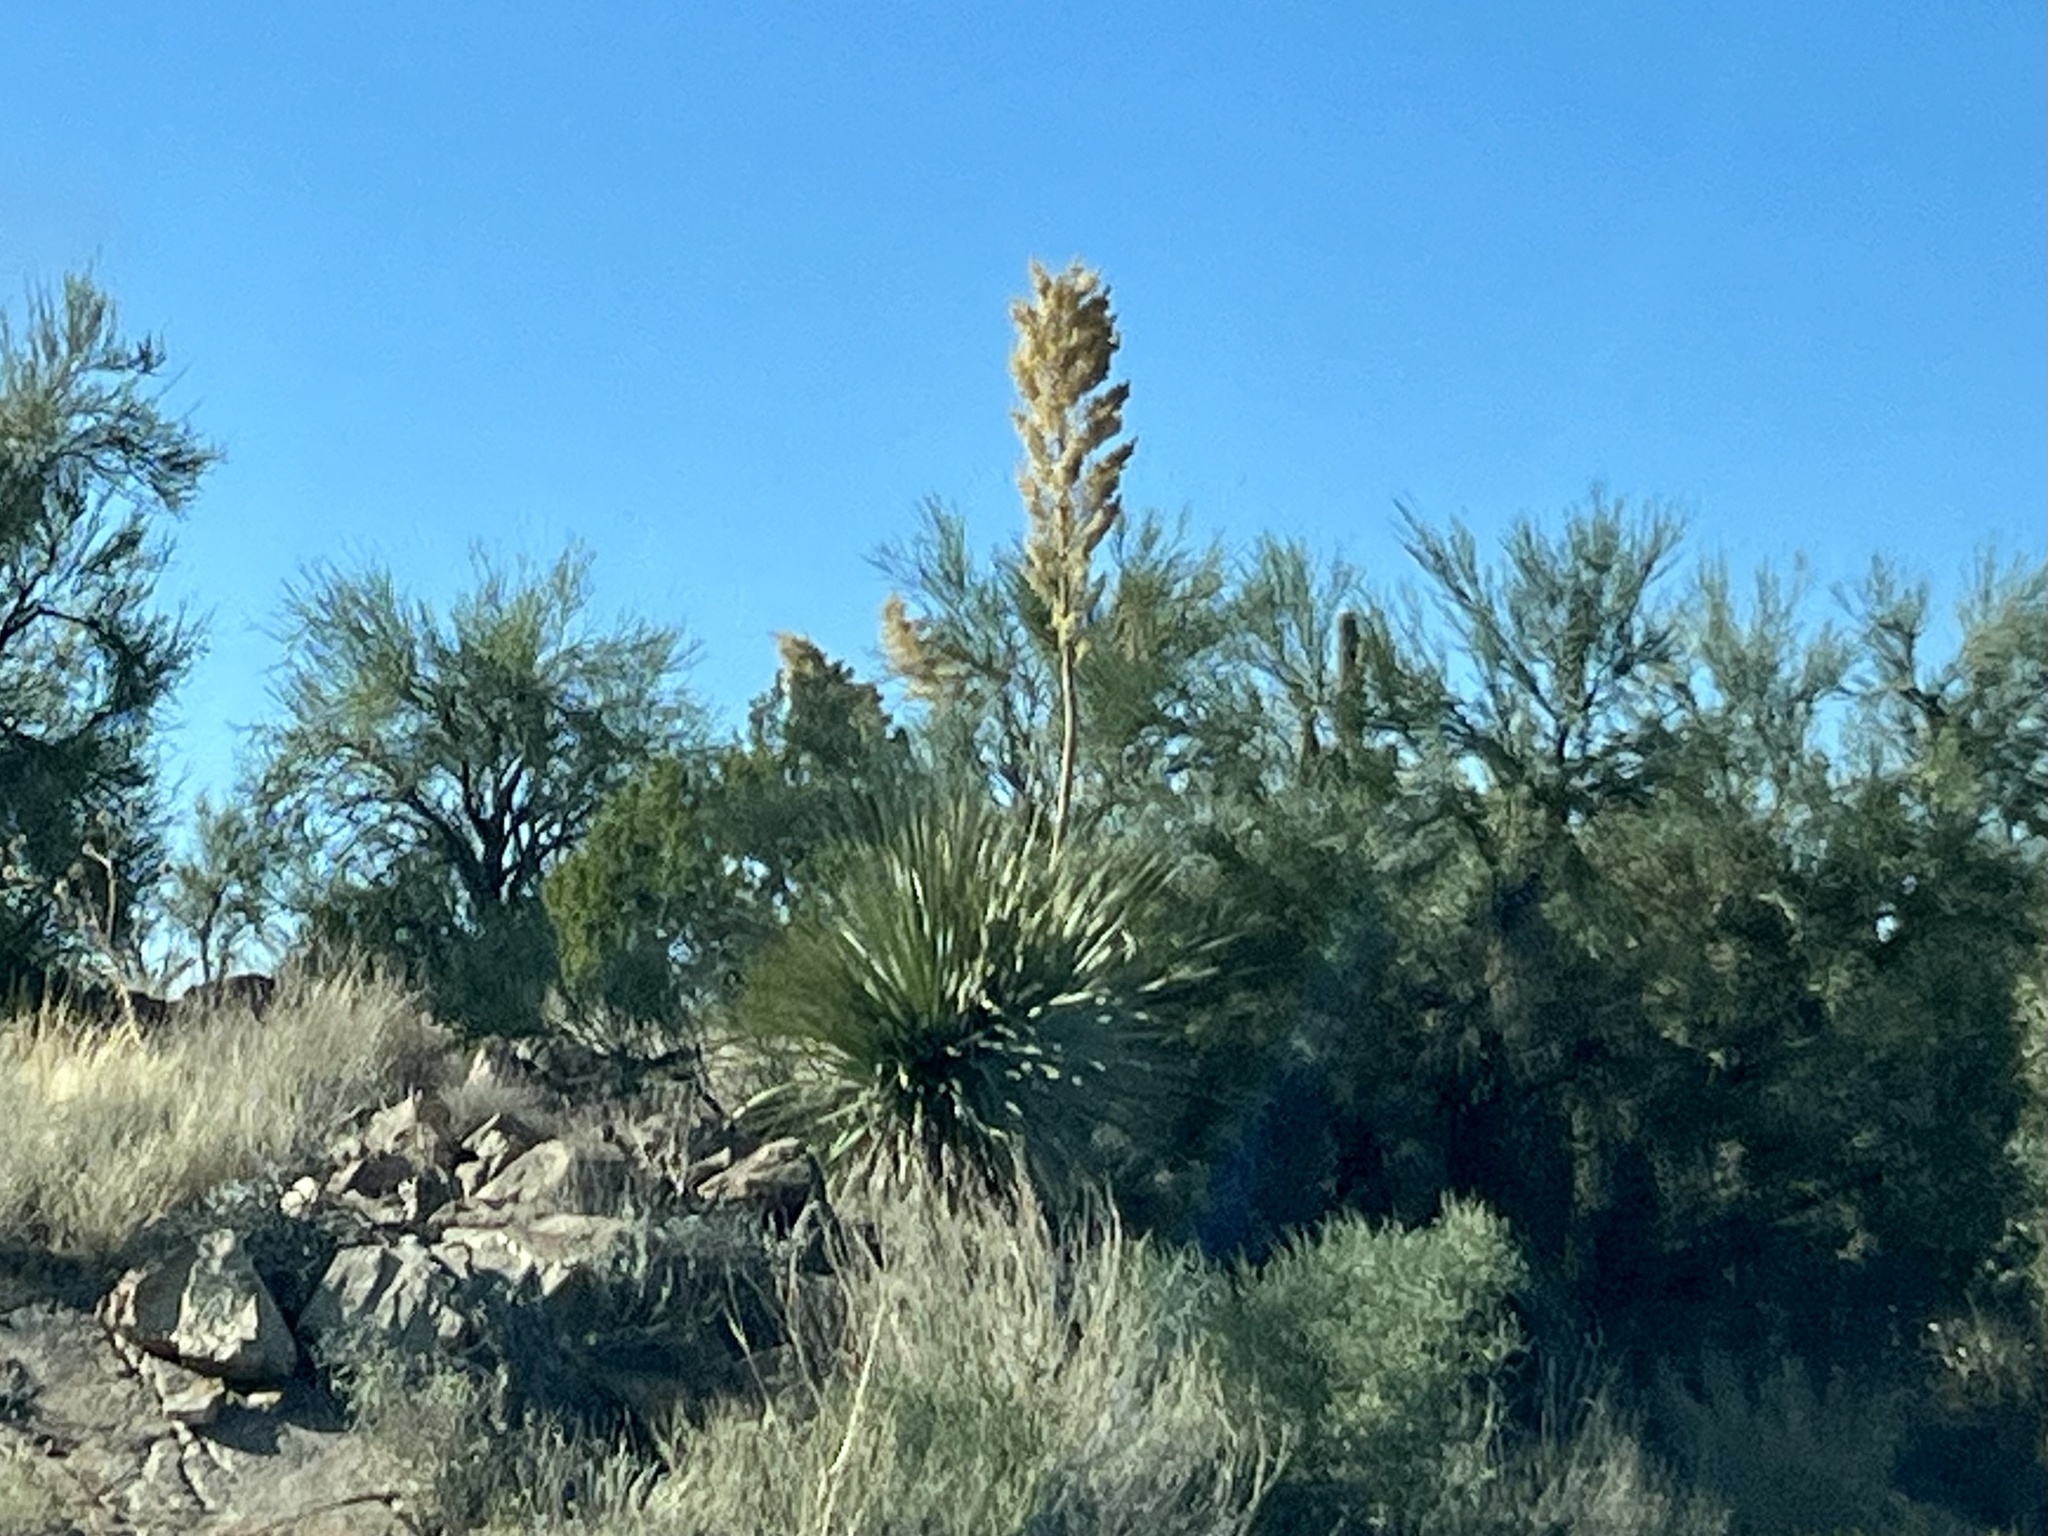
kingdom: Plantae
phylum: Tracheophyta
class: Liliopsida
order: Asparagales
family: Asparagaceae
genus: Nolina
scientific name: Nolina bigelovii
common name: Bigelow bear-grass
